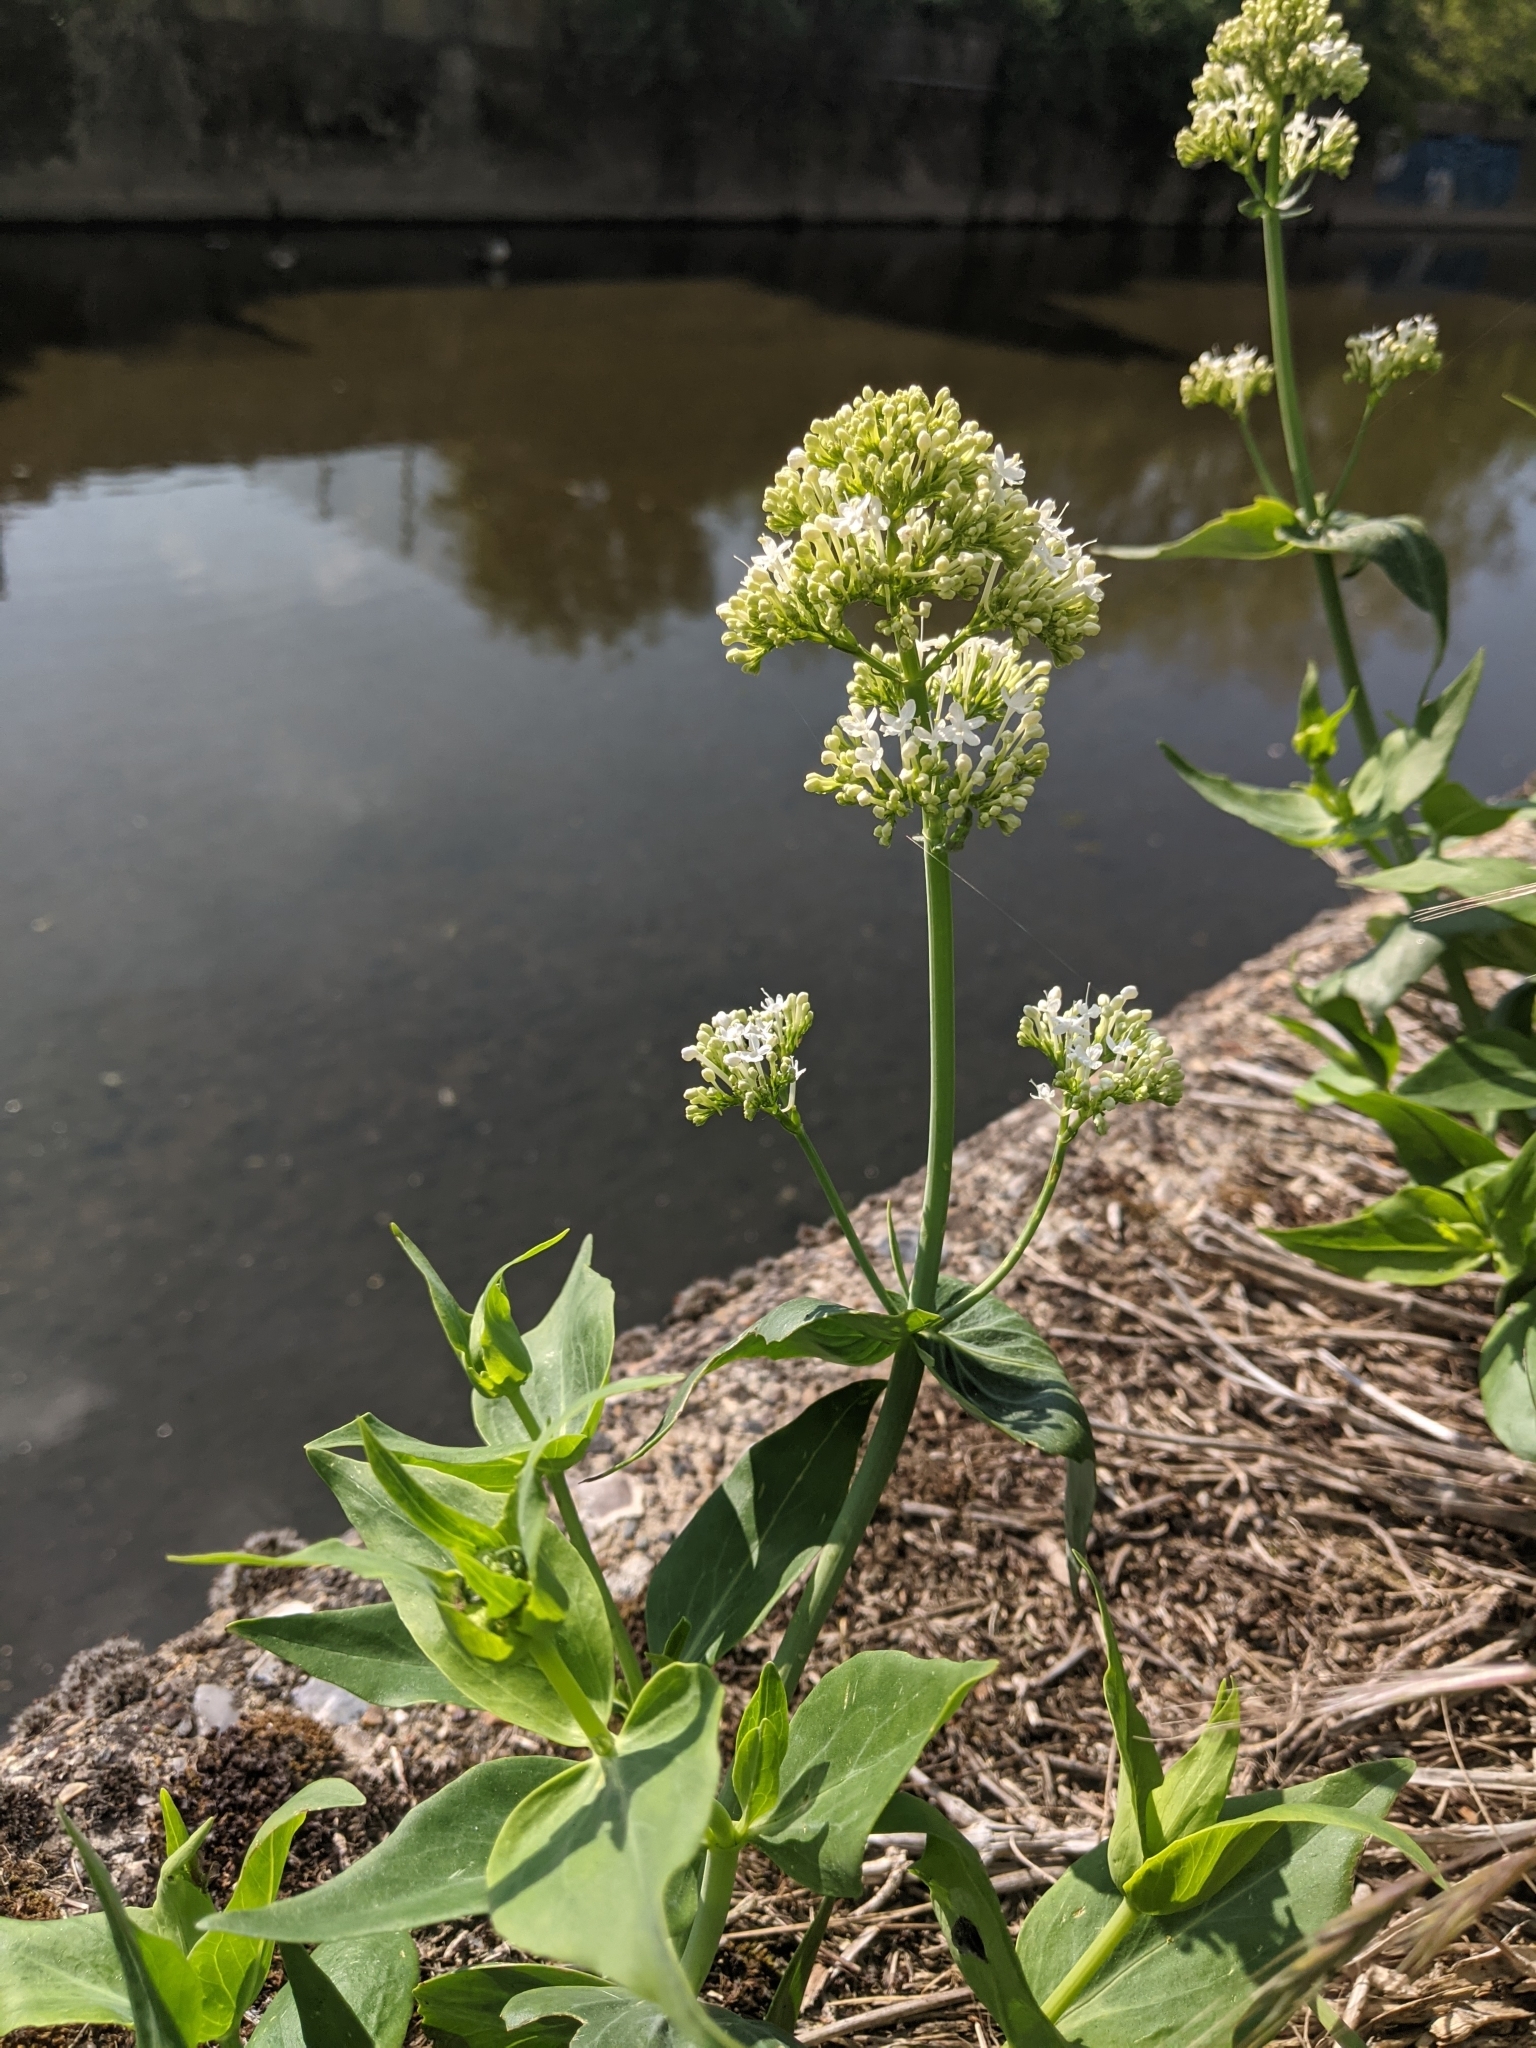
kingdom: Plantae
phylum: Tracheophyta
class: Magnoliopsida
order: Dipsacales
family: Caprifoliaceae
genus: Centranthus
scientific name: Centranthus ruber
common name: Red valerian
